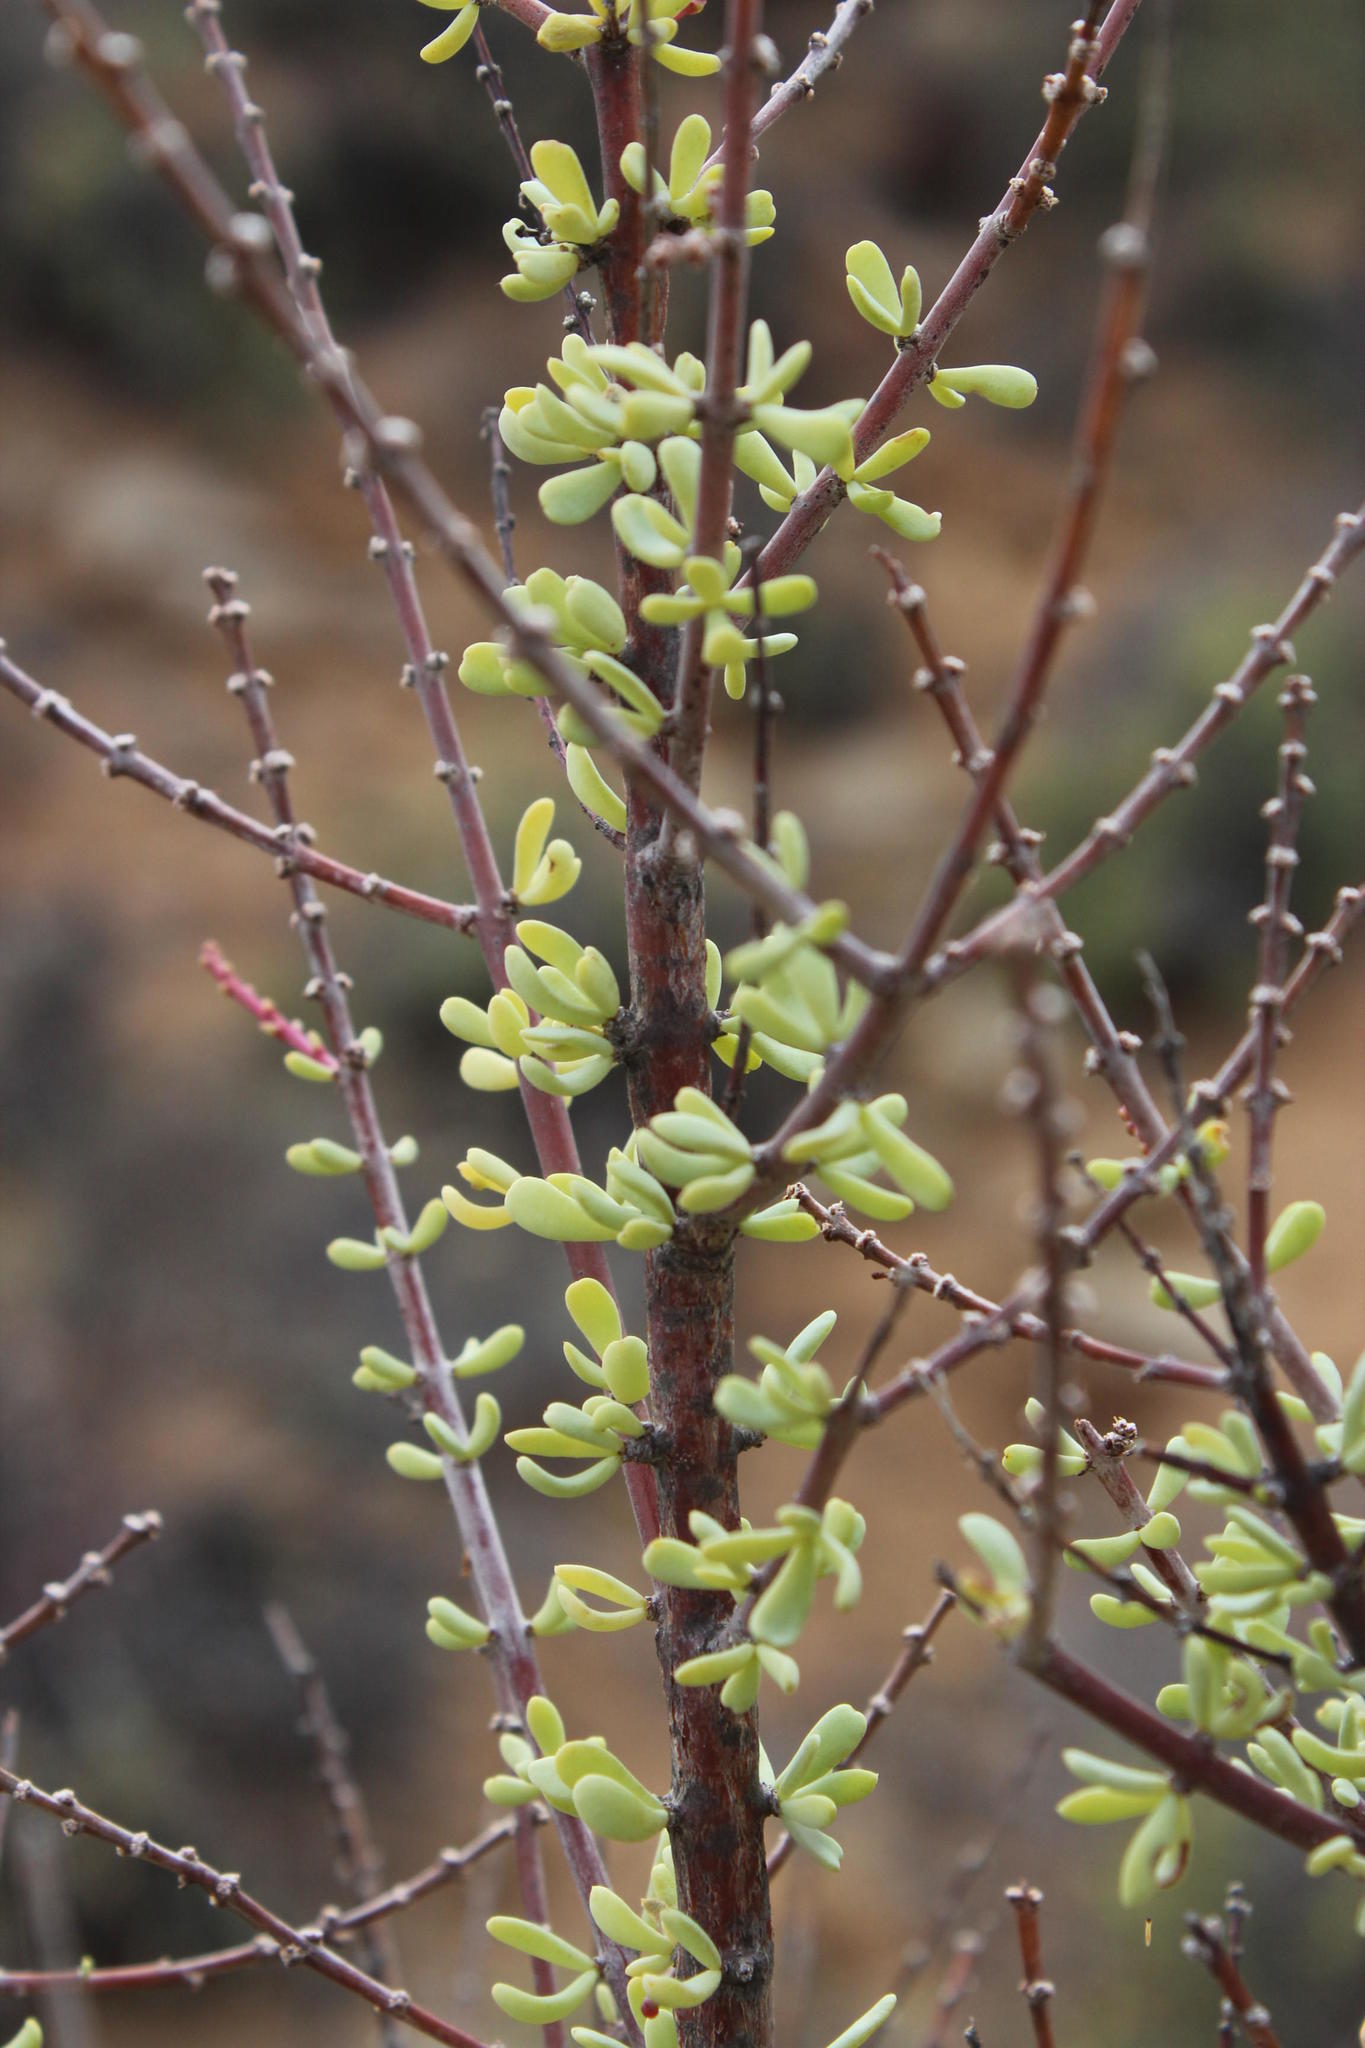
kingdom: Plantae
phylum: Tracheophyta
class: Magnoliopsida
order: Caryophyllales
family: Didiereaceae
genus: Portulacaria
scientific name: Portulacaria fruticulosa
